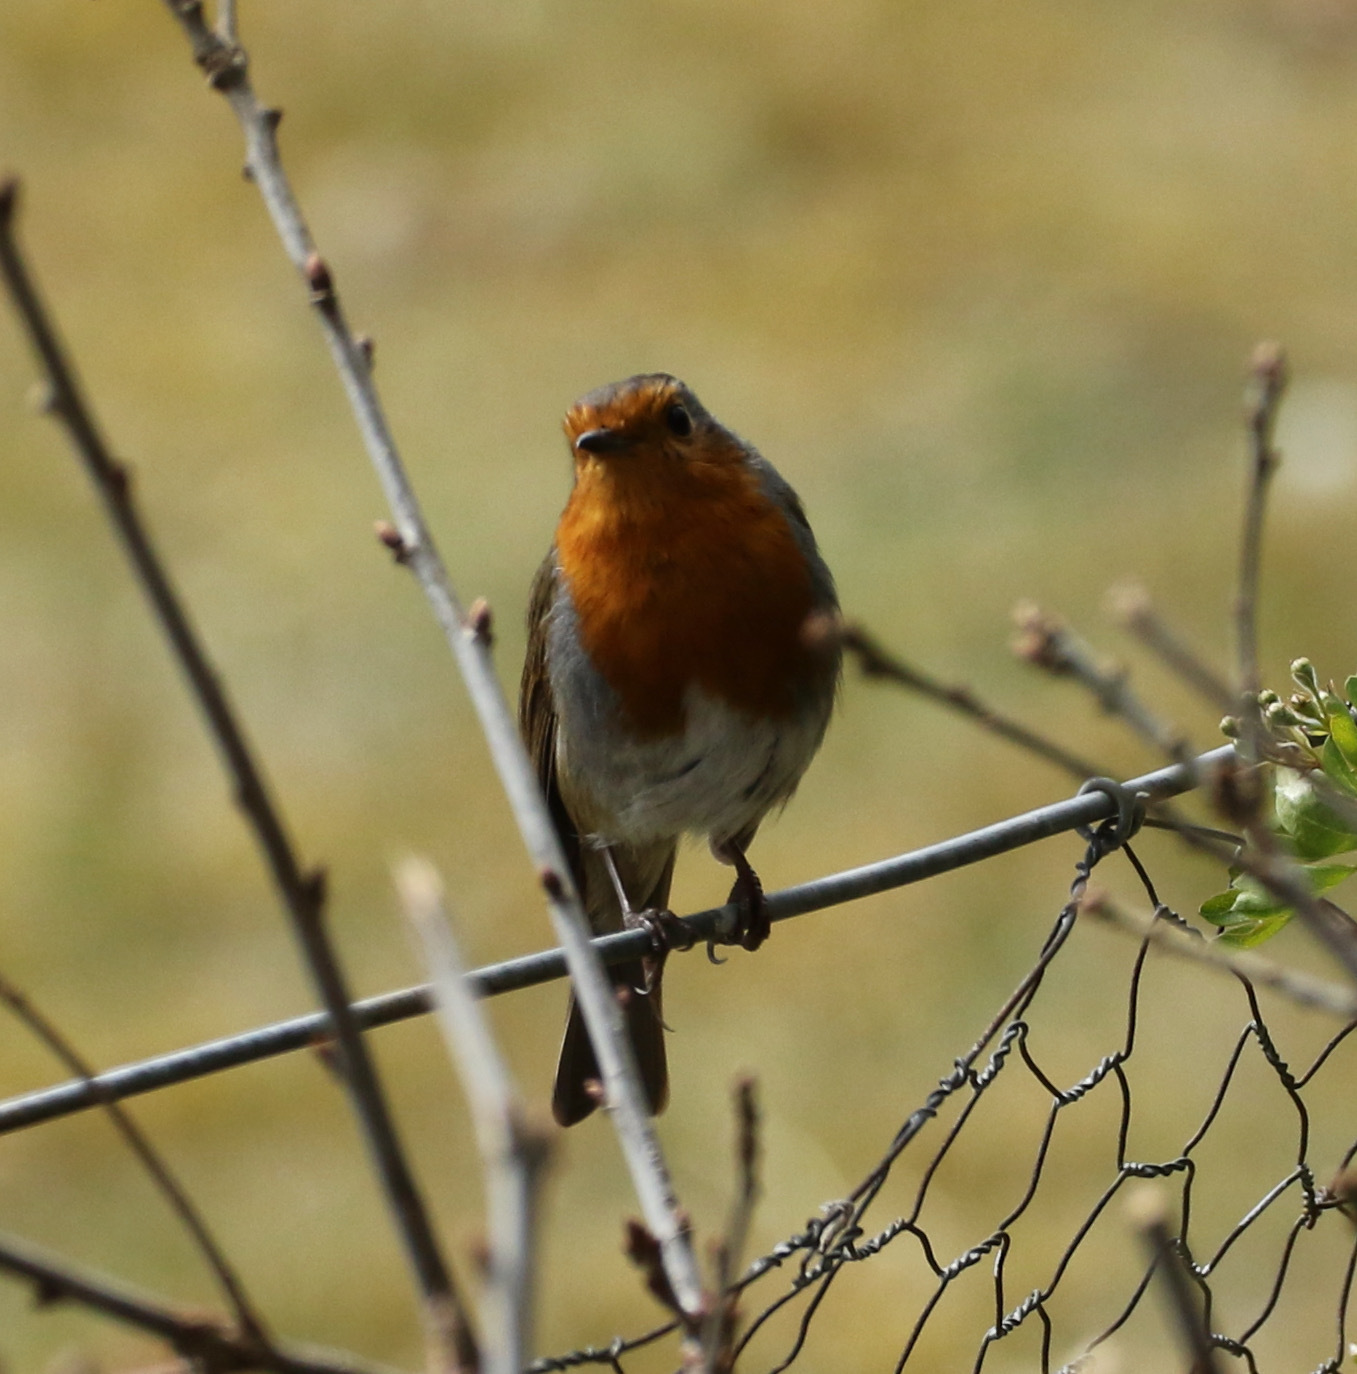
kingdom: Animalia
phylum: Chordata
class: Aves
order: Passeriformes
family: Muscicapidae
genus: Erithacus
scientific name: Erithacus rubecula
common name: European robin
